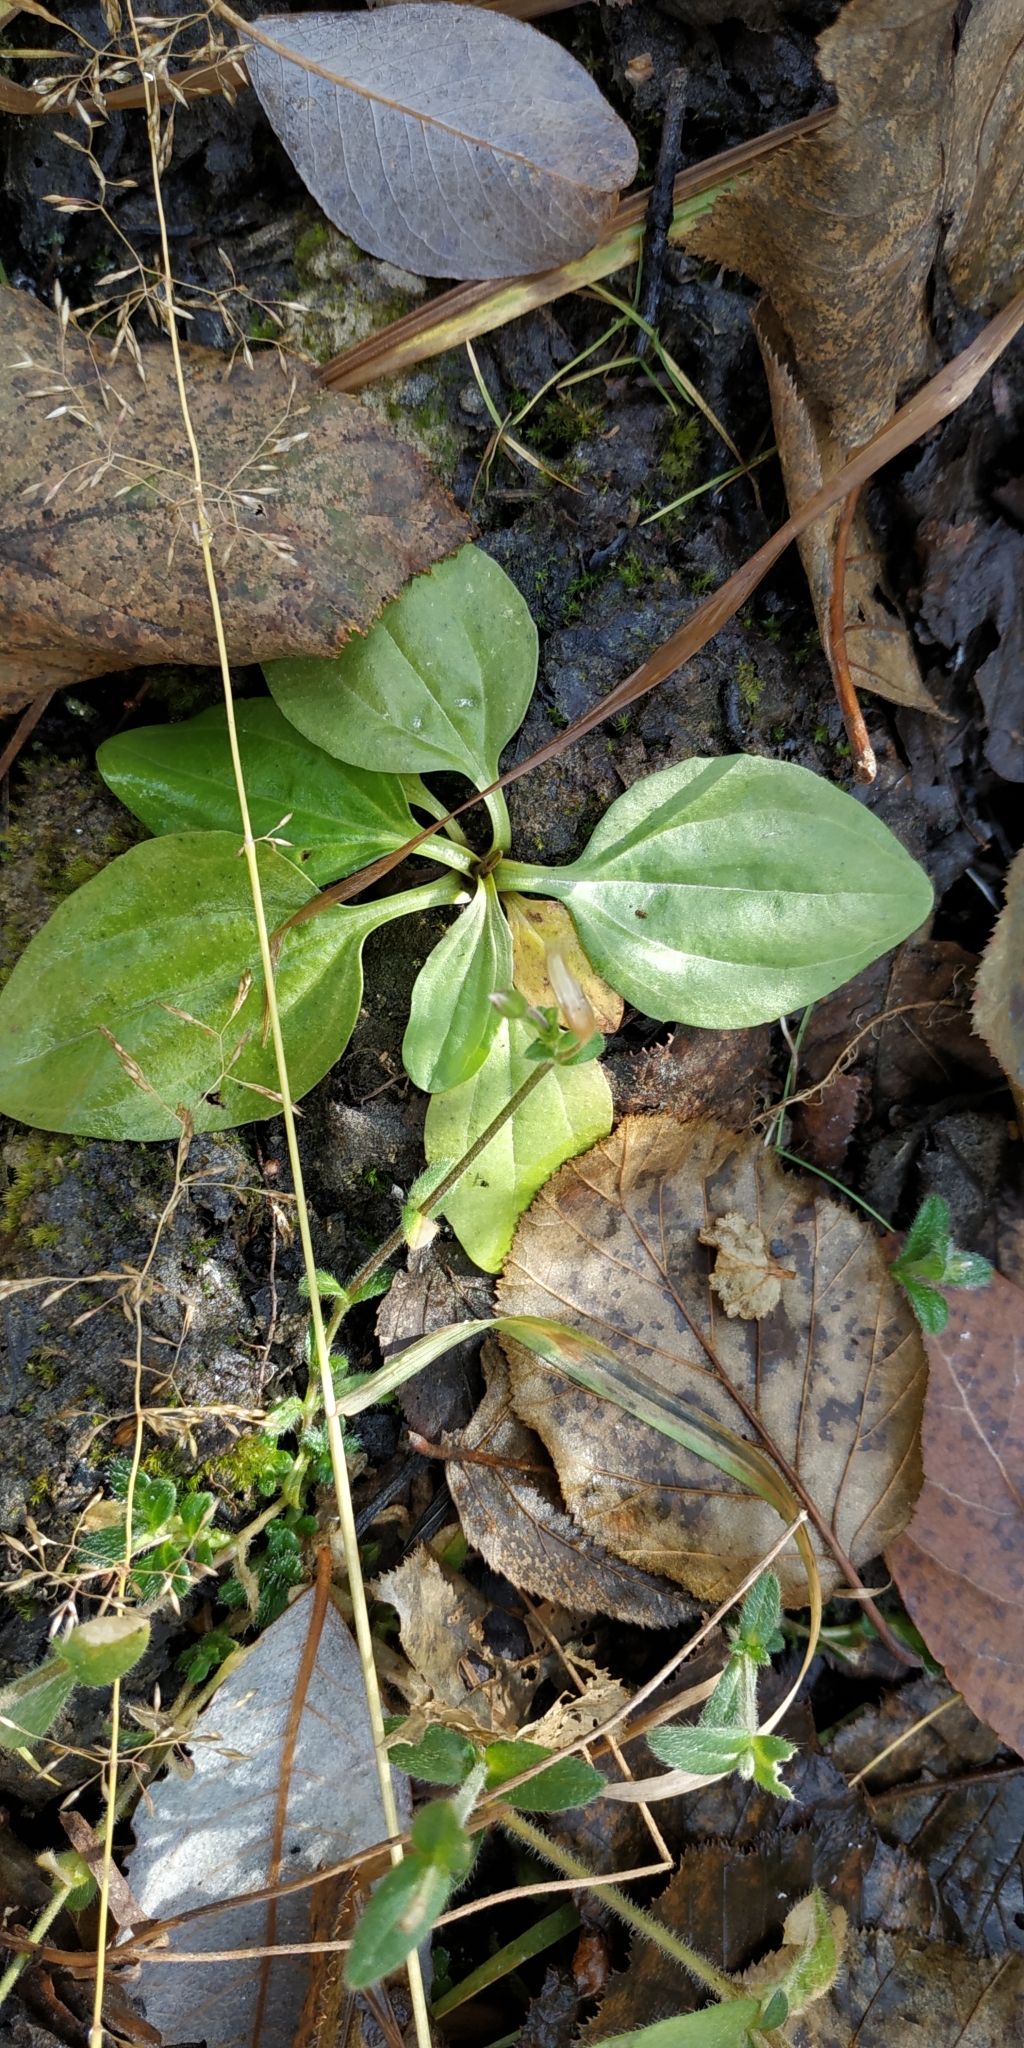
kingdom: Plantae
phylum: Tracheophyta
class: Magnoliopsida
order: Lamiales
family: Plantaginaceae
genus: Plantago
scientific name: Plantago major
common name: Common plantain
